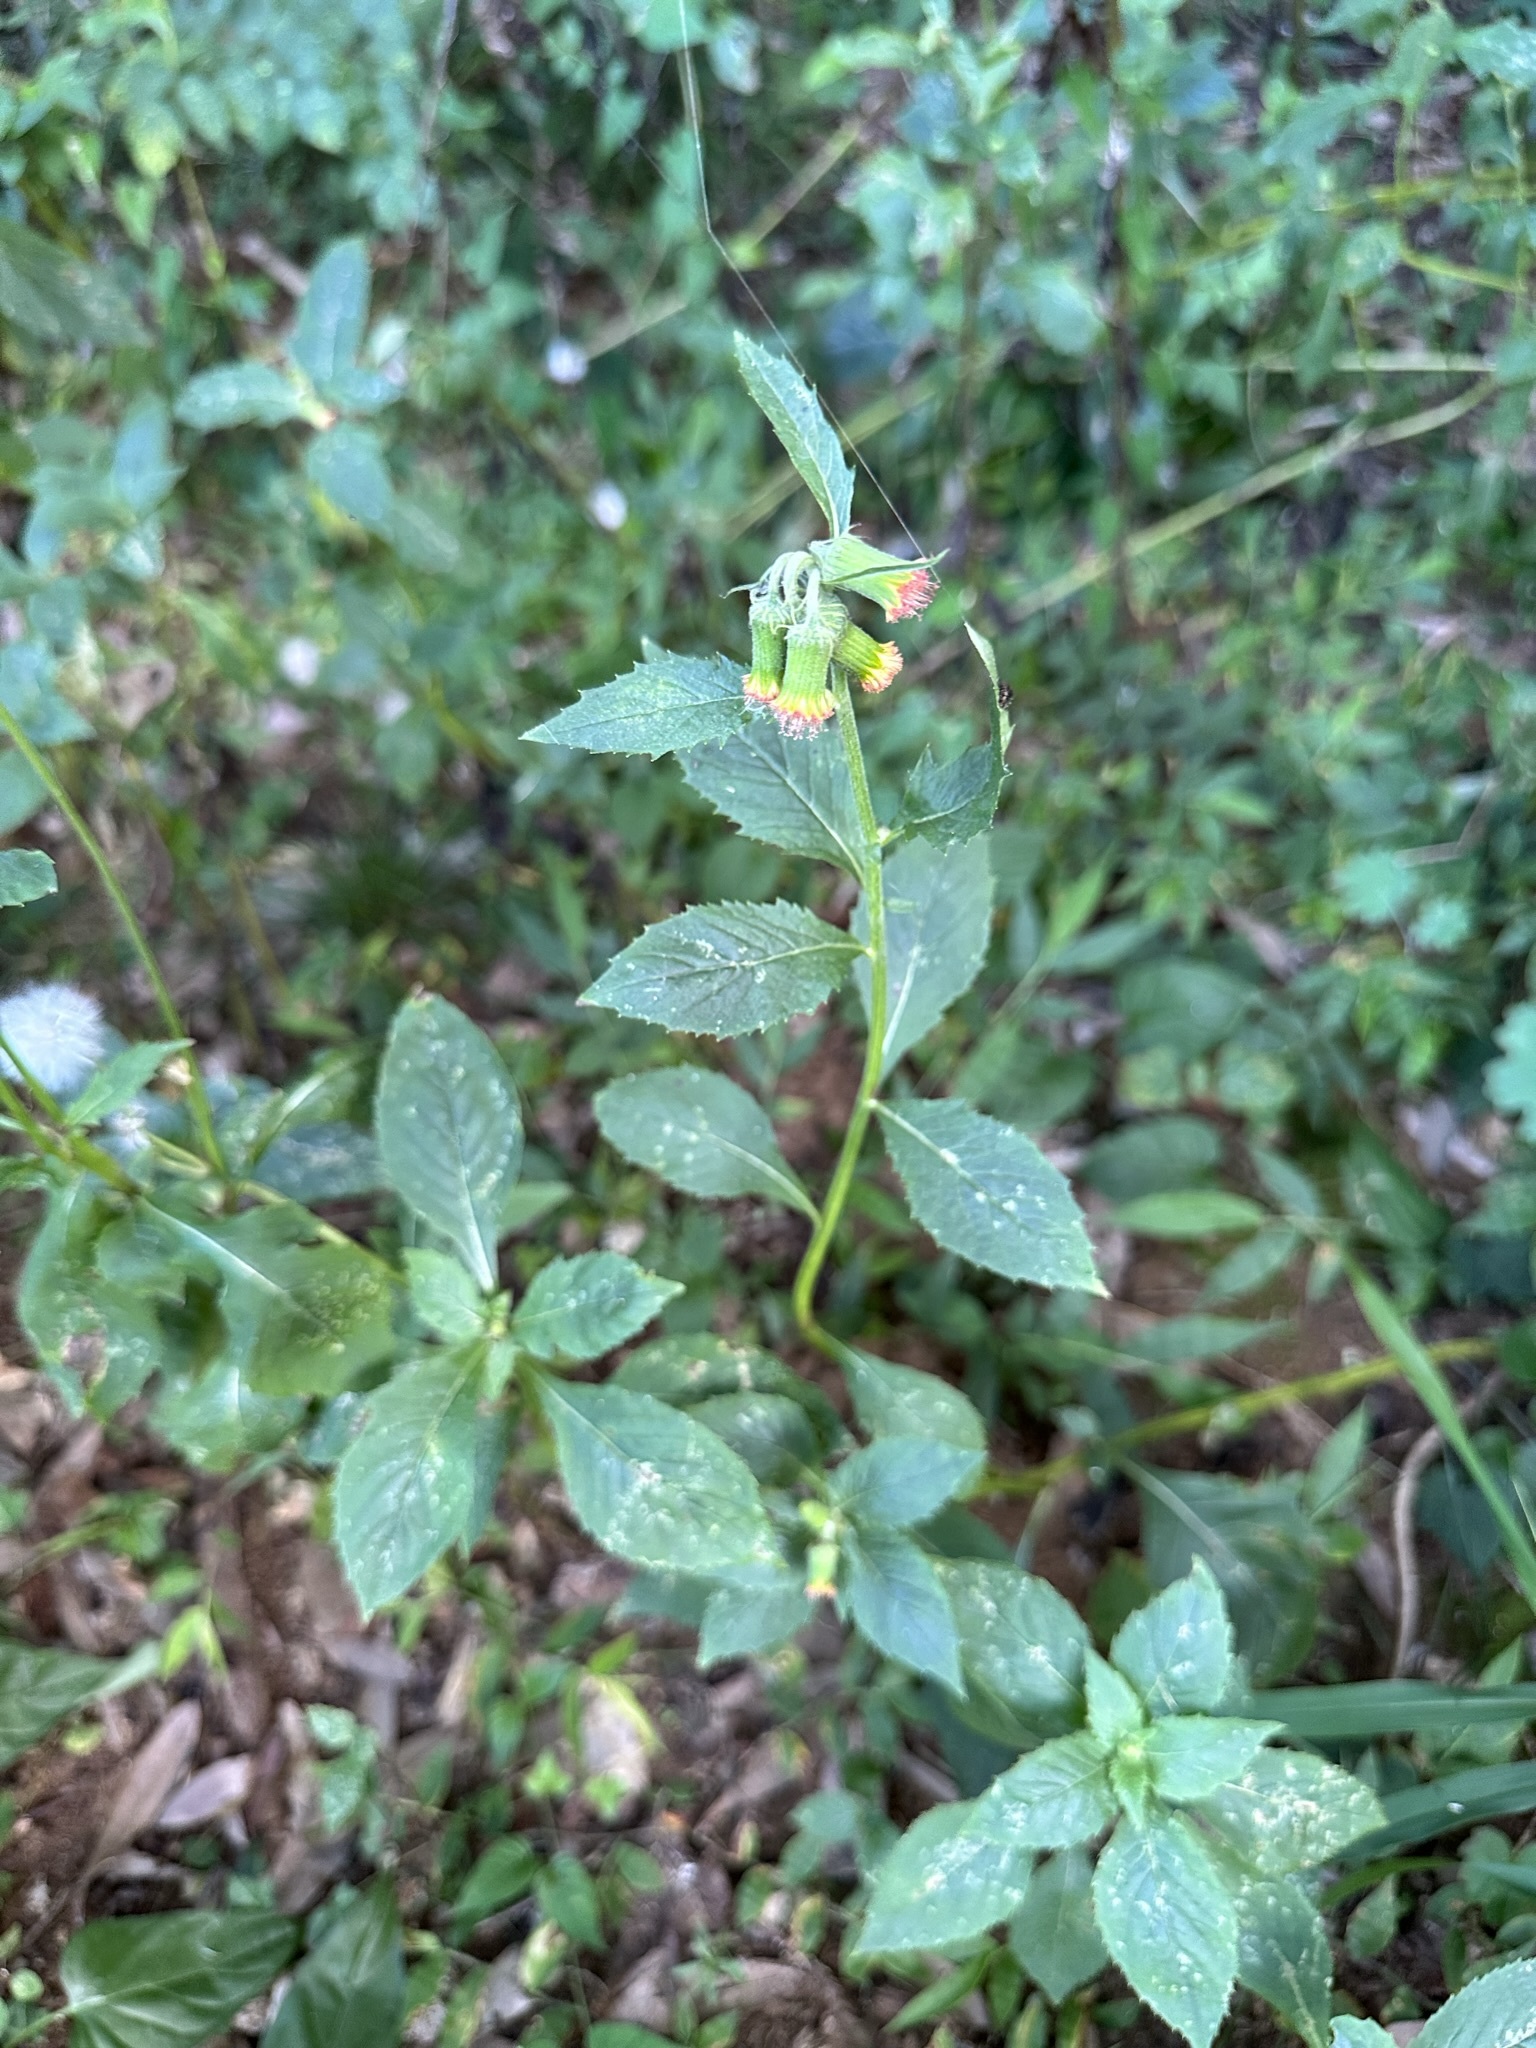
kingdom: Plantae
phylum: Tracheophyta
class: Magnoliopsida
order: Asterales
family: Asteraceae
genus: Crassocephalum
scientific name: Crassocephalum crepidioides
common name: Redflower ragleaf
